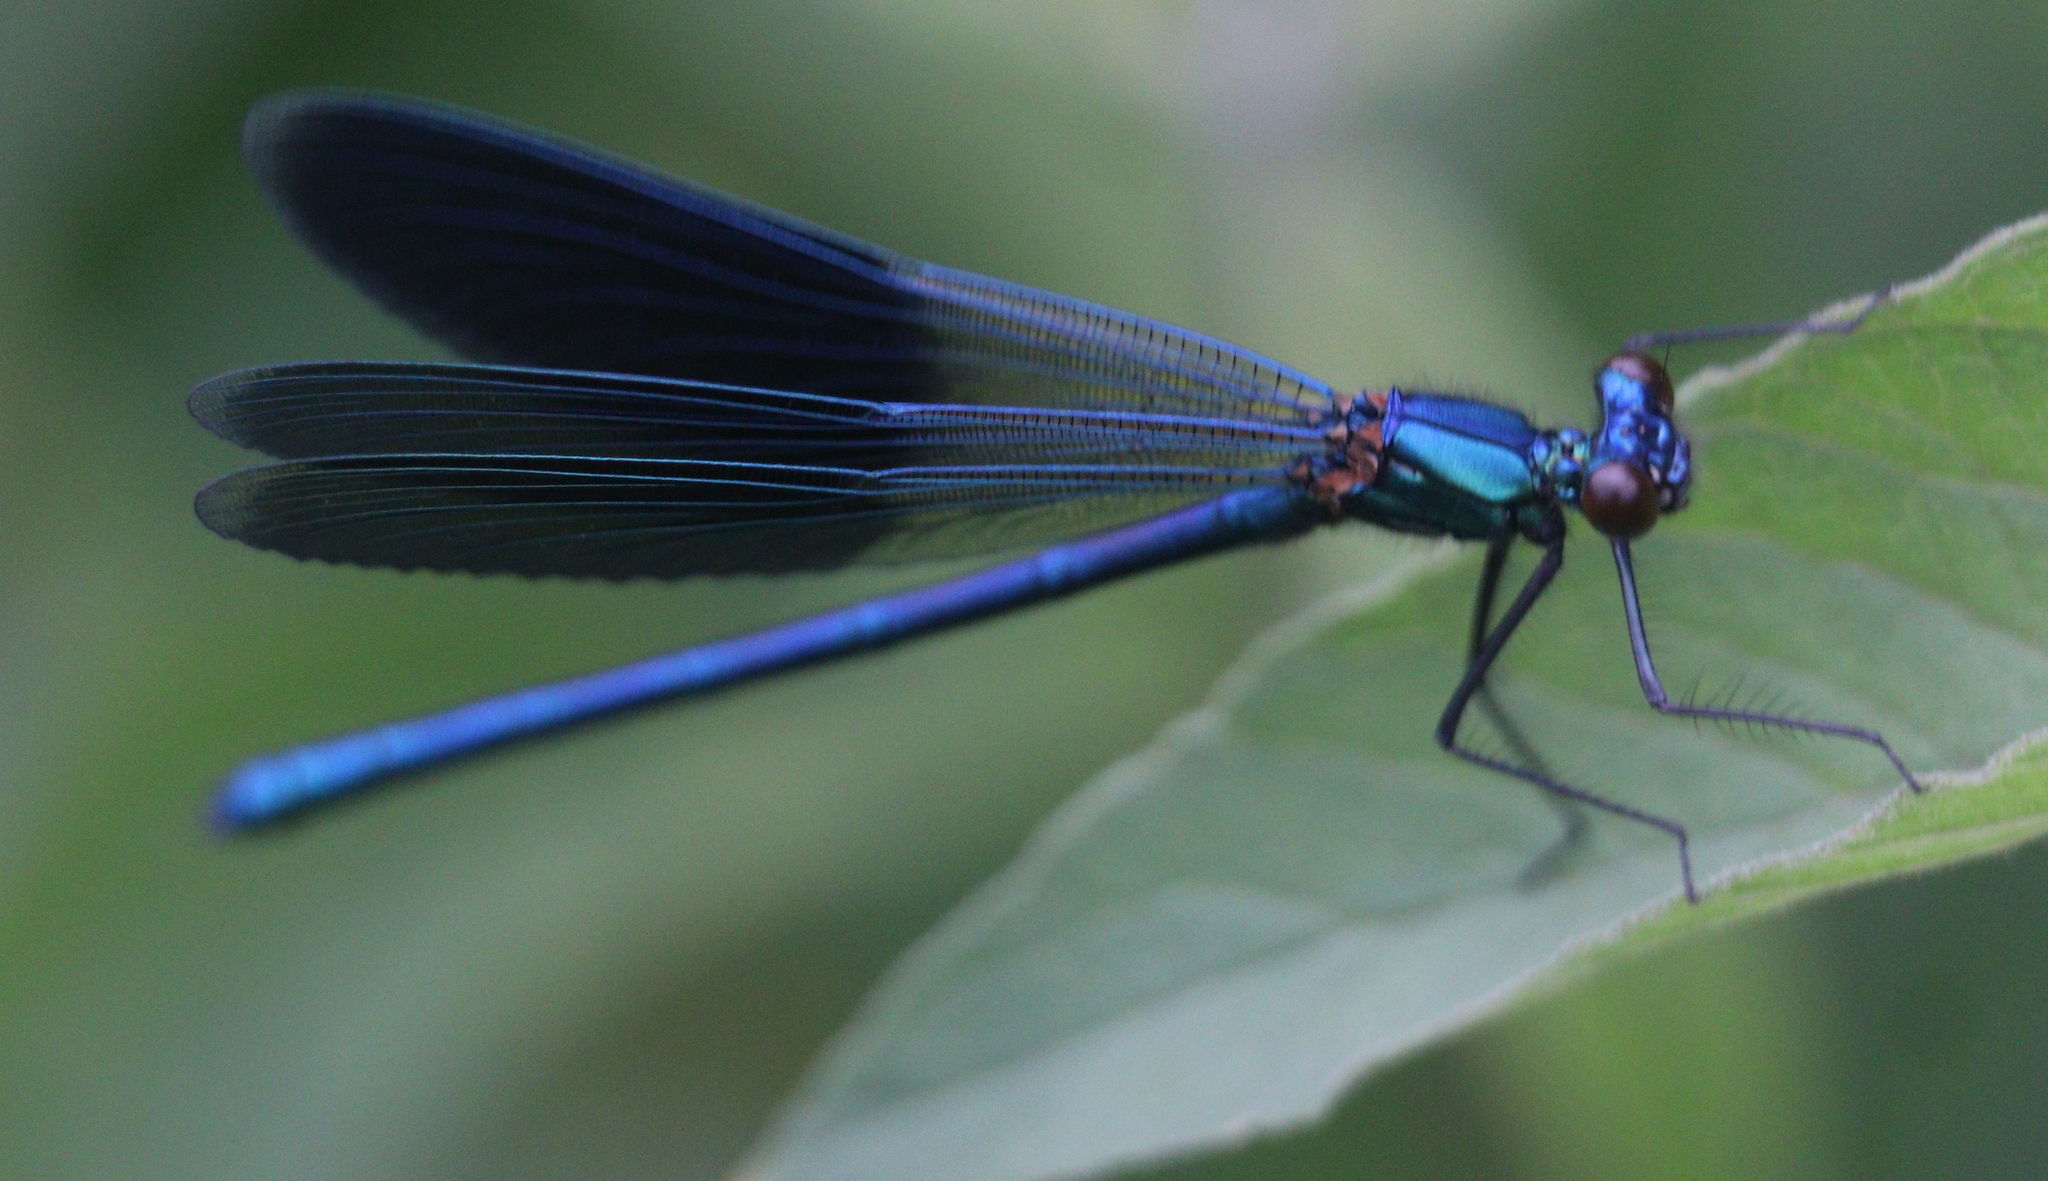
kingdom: Animalia
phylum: Arthropoda
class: Insecta
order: Odonata
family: Calopterygidae
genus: Calopteryx
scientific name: Calopteryx splendens
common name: Banded demoiselle
